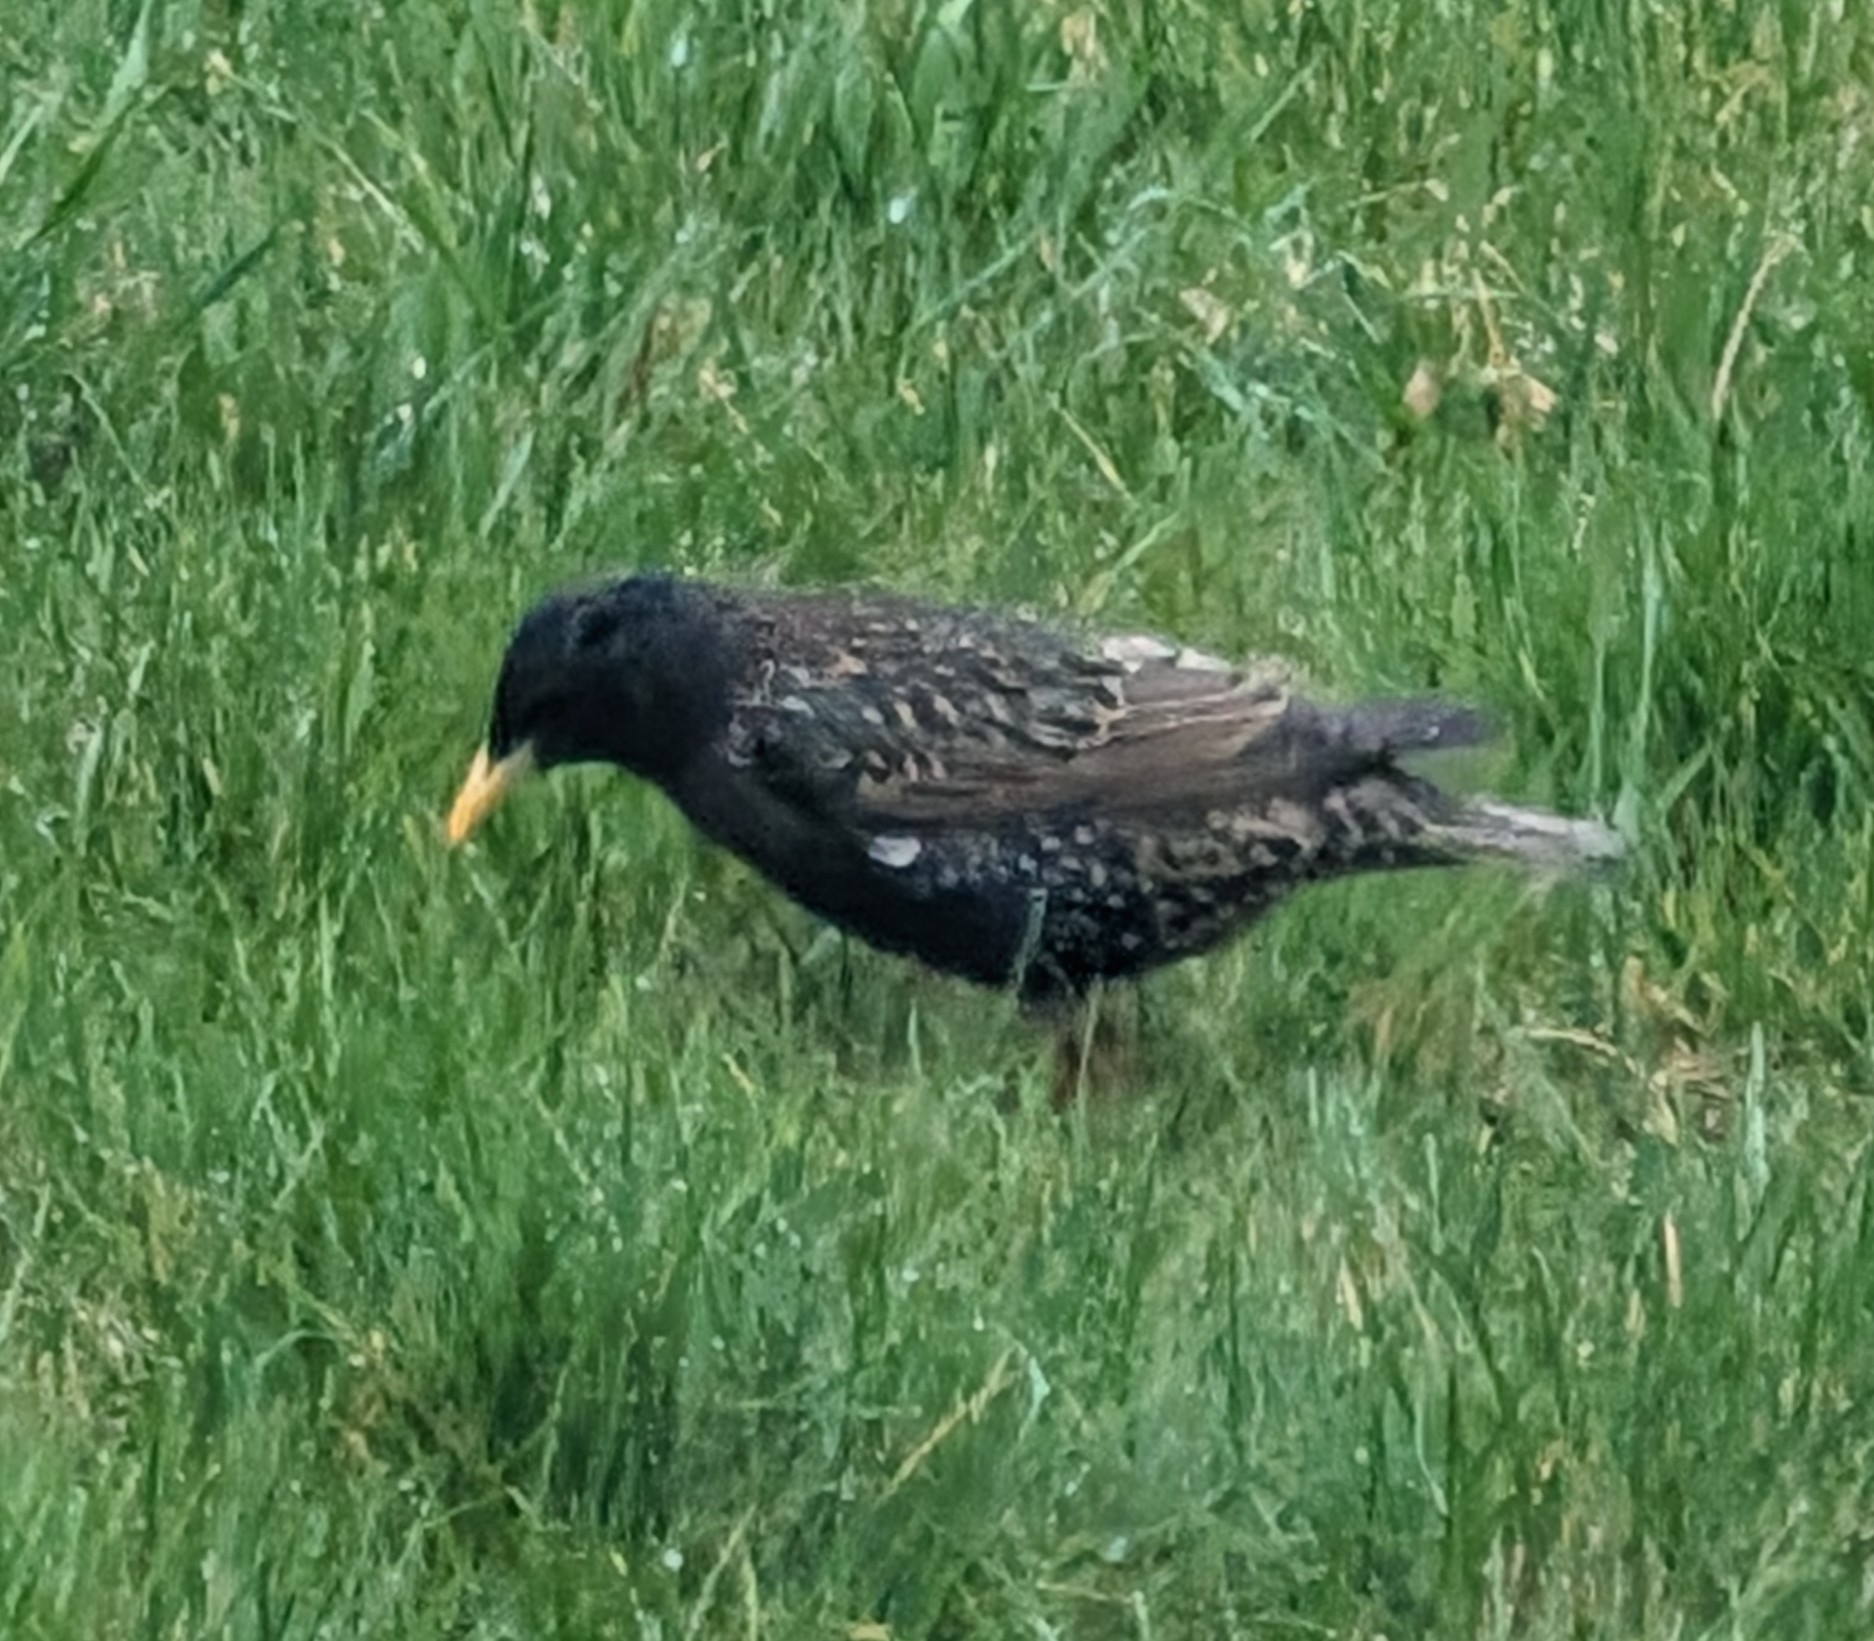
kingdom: Animalia
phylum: Chordata
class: Aves
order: Passeriformes
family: Sturnidae
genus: Sturnus
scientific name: Sturnus vulgaris
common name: Common starling
